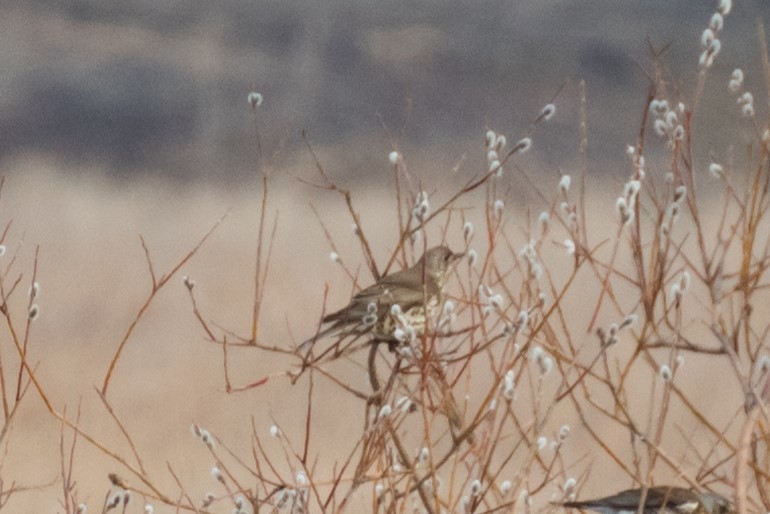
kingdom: Animalia
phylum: Chordata
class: Aves
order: Passeriformes
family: Turdidae
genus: Turdus
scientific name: Turdus viscivorus
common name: Mistle thrush
